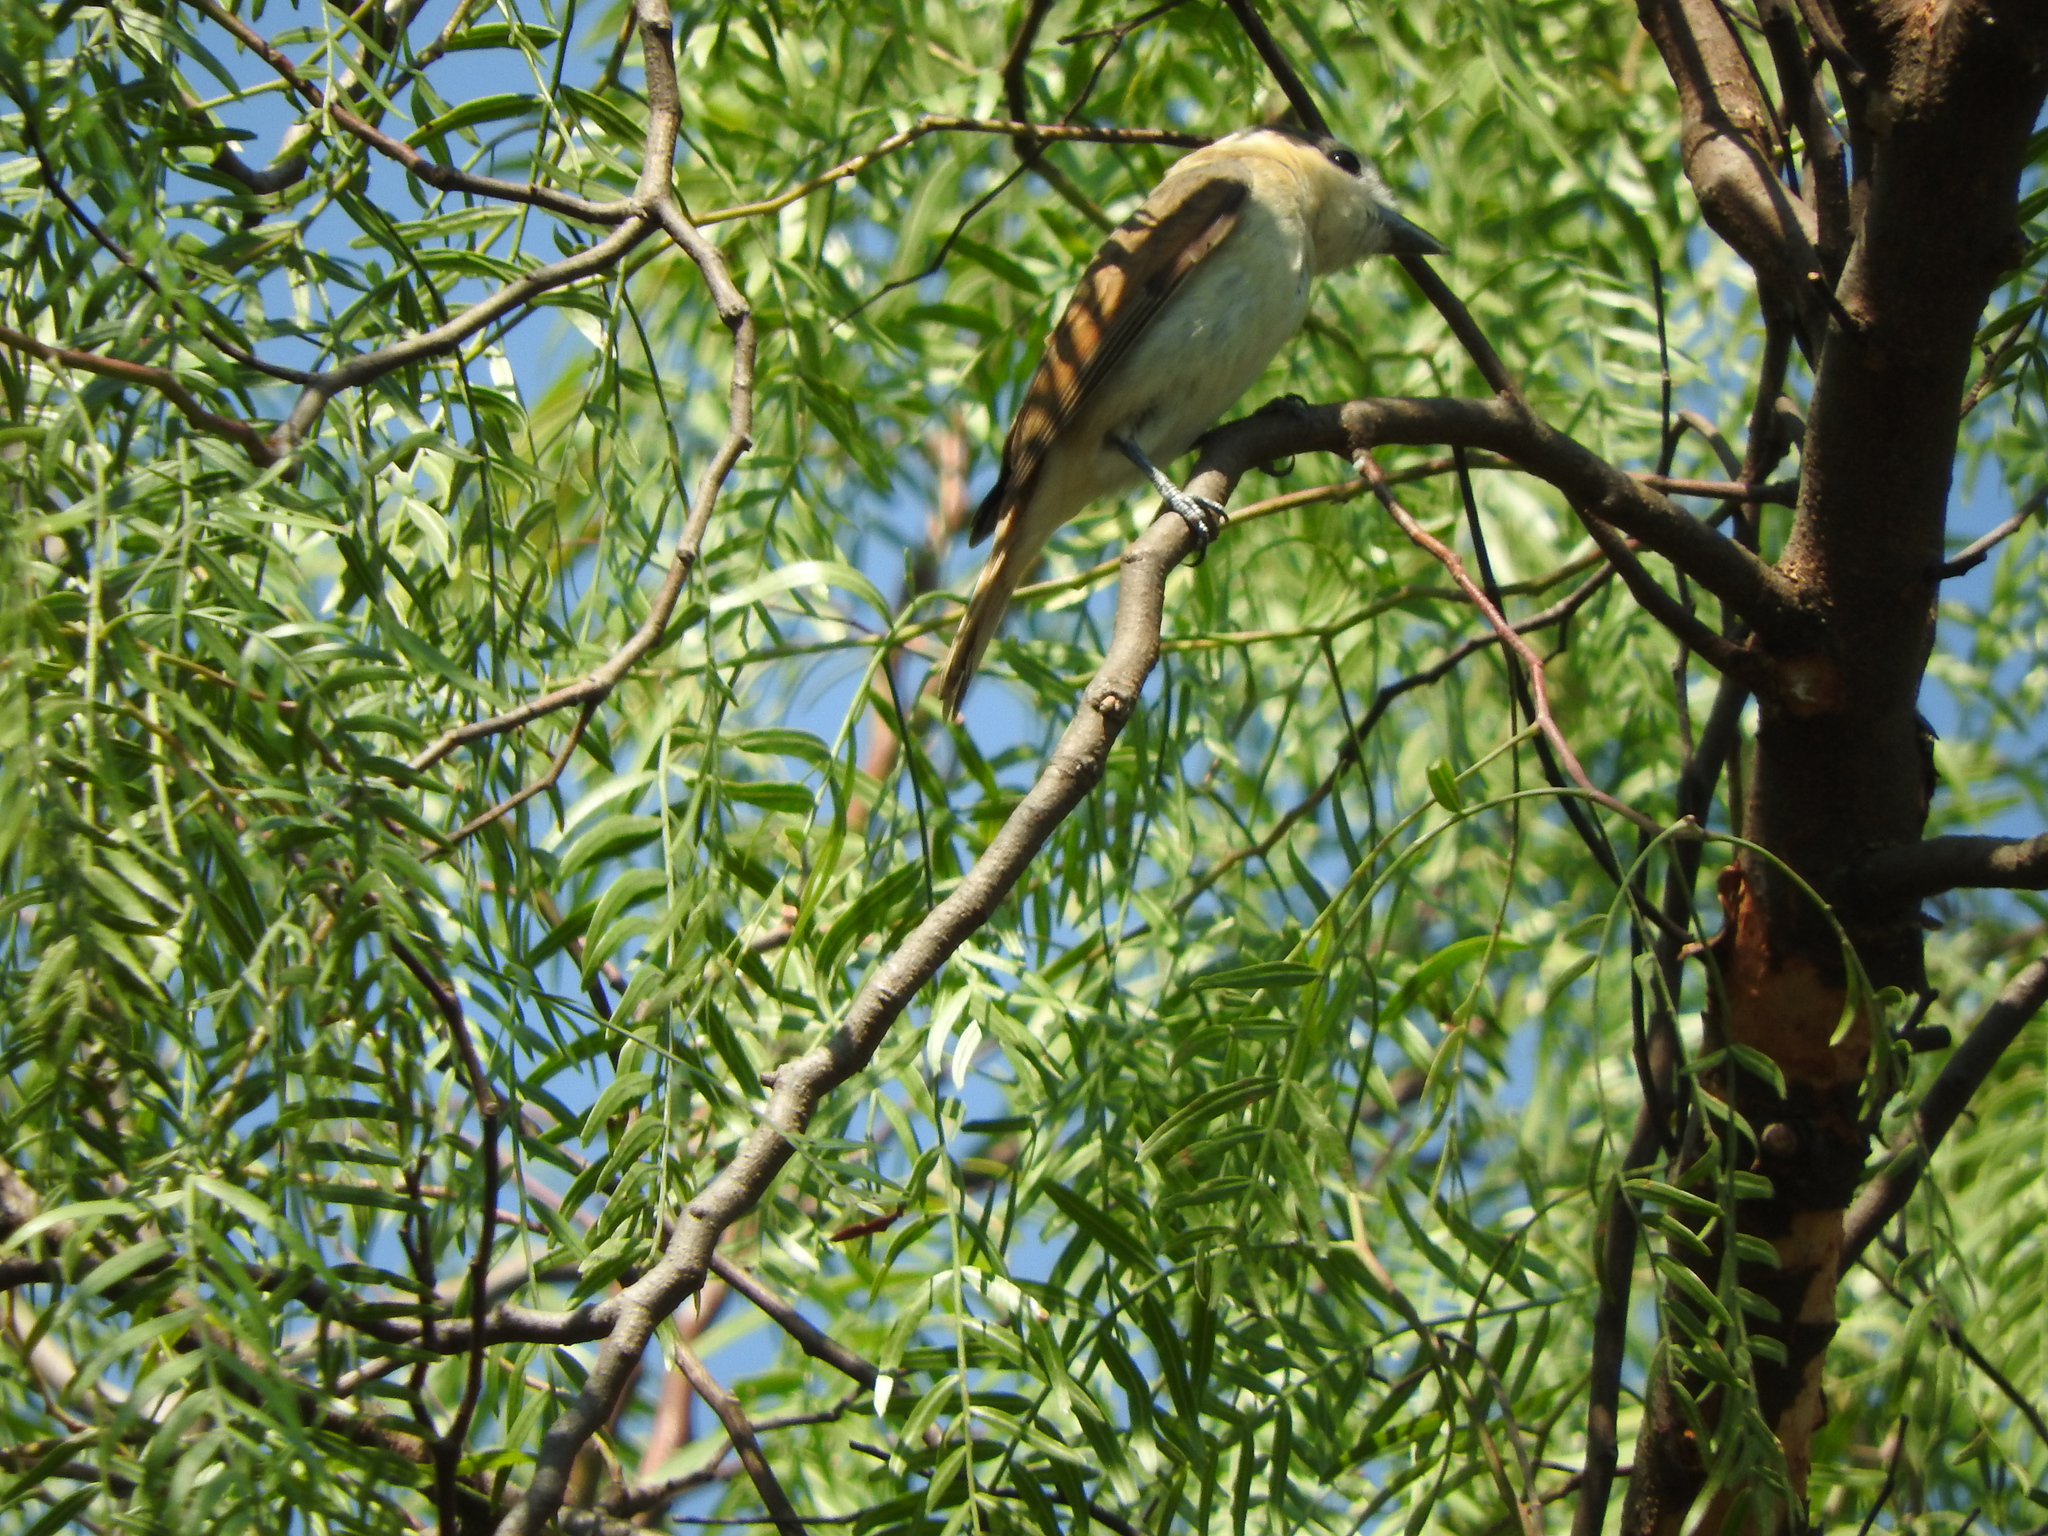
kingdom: Animalia
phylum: Chordata
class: Aves
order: Passeriformes
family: Cotingidae
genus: Pachyramphus
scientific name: Pachyramphus aglaiae
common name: Rose-throated becard
